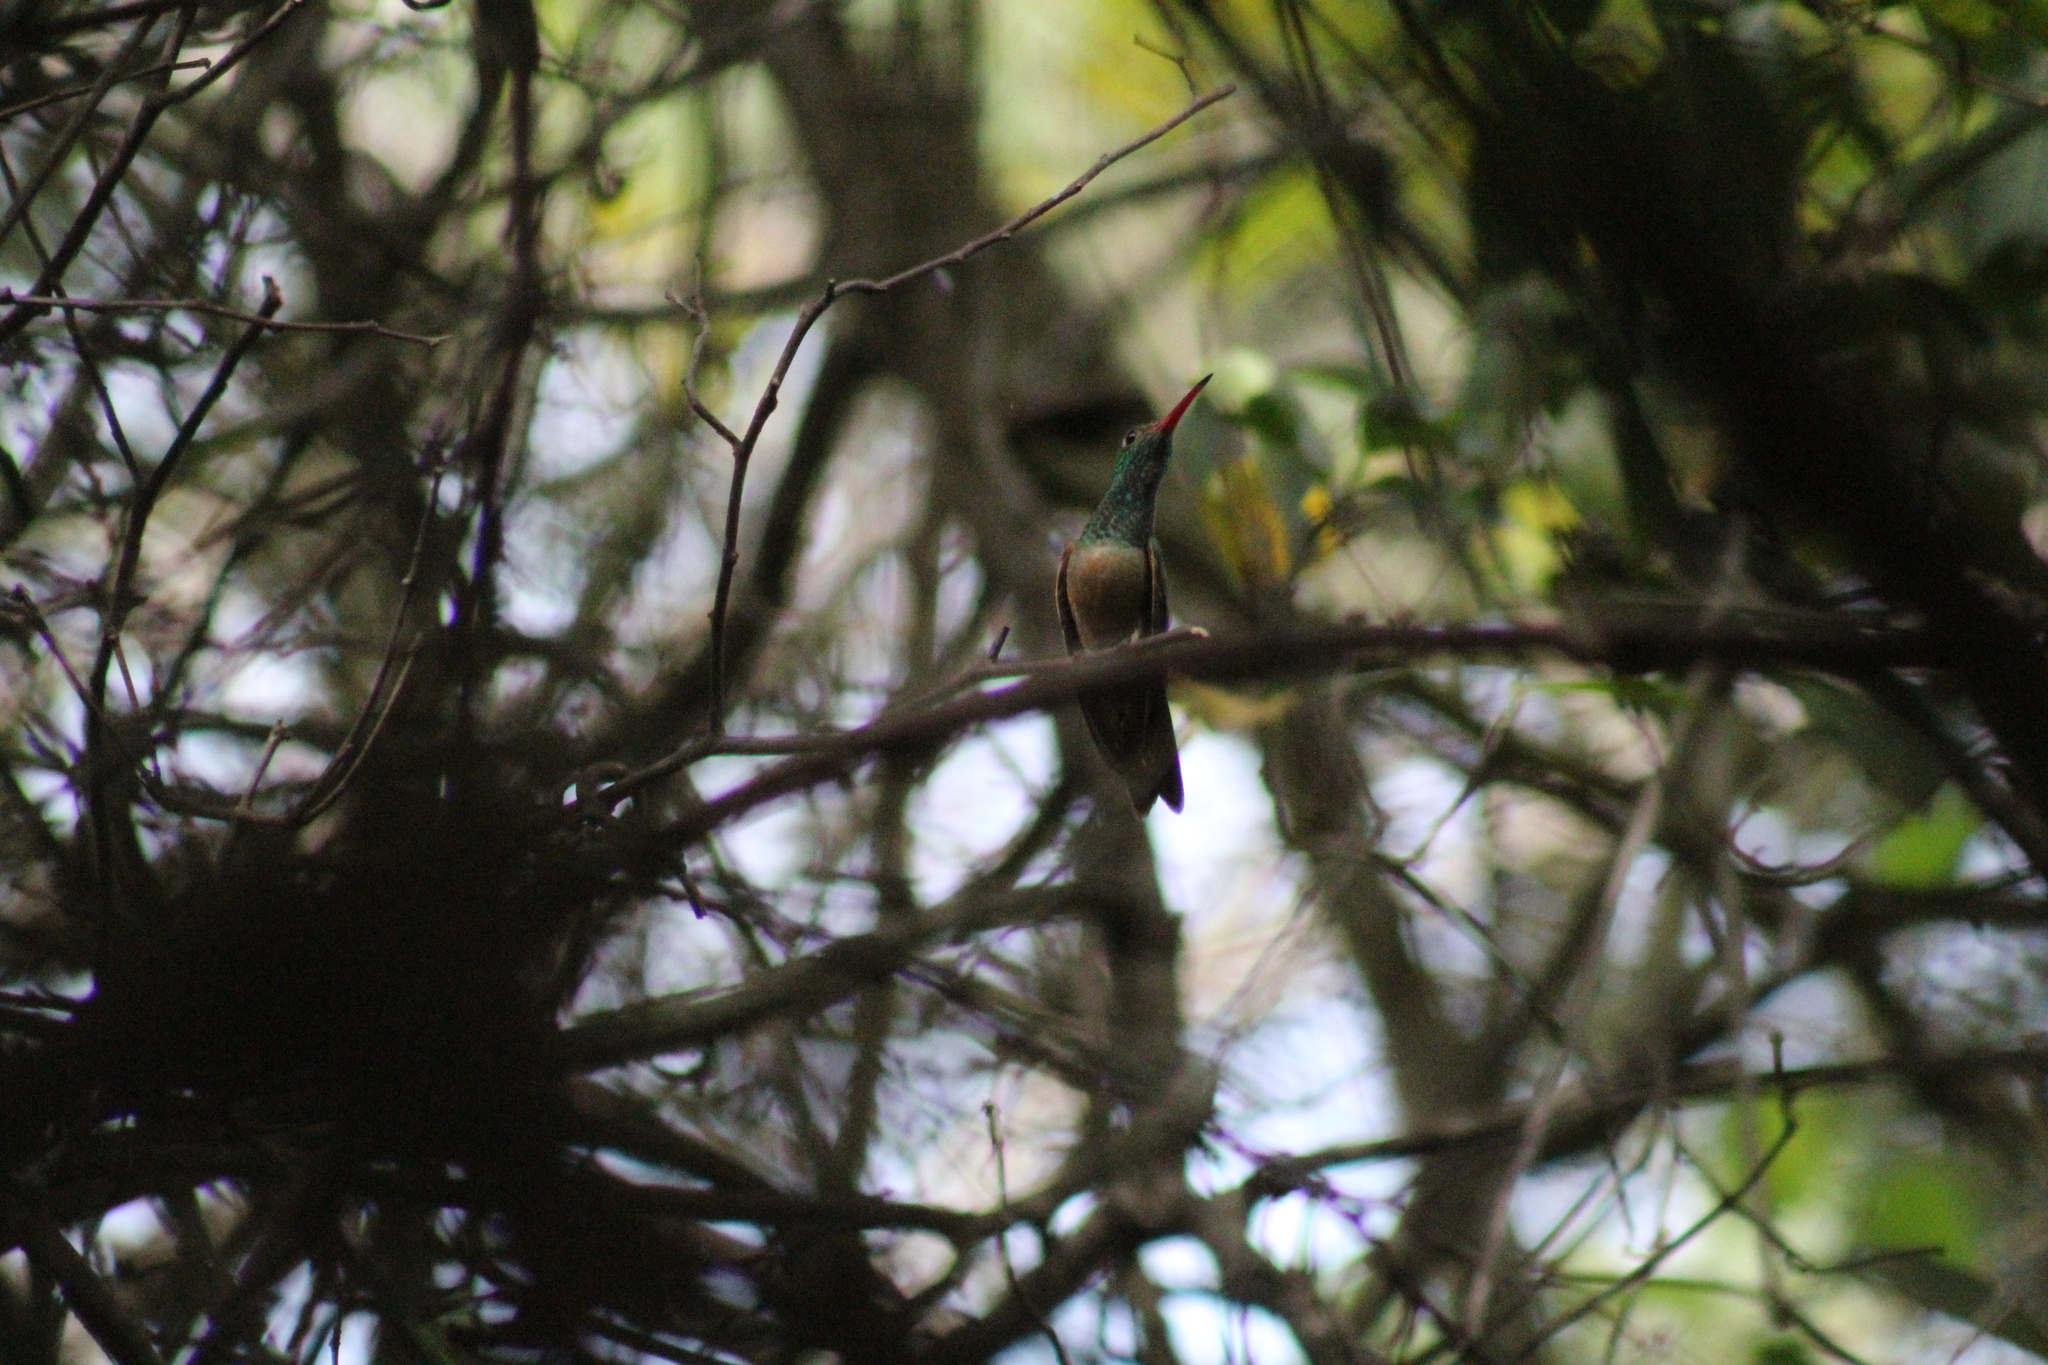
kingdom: Animalia
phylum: Chordata
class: Aves
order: Apodiformes
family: Trochilidae
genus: Amazilia
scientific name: Amazilia yucatanensis
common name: Buff-bellied hummingbird
